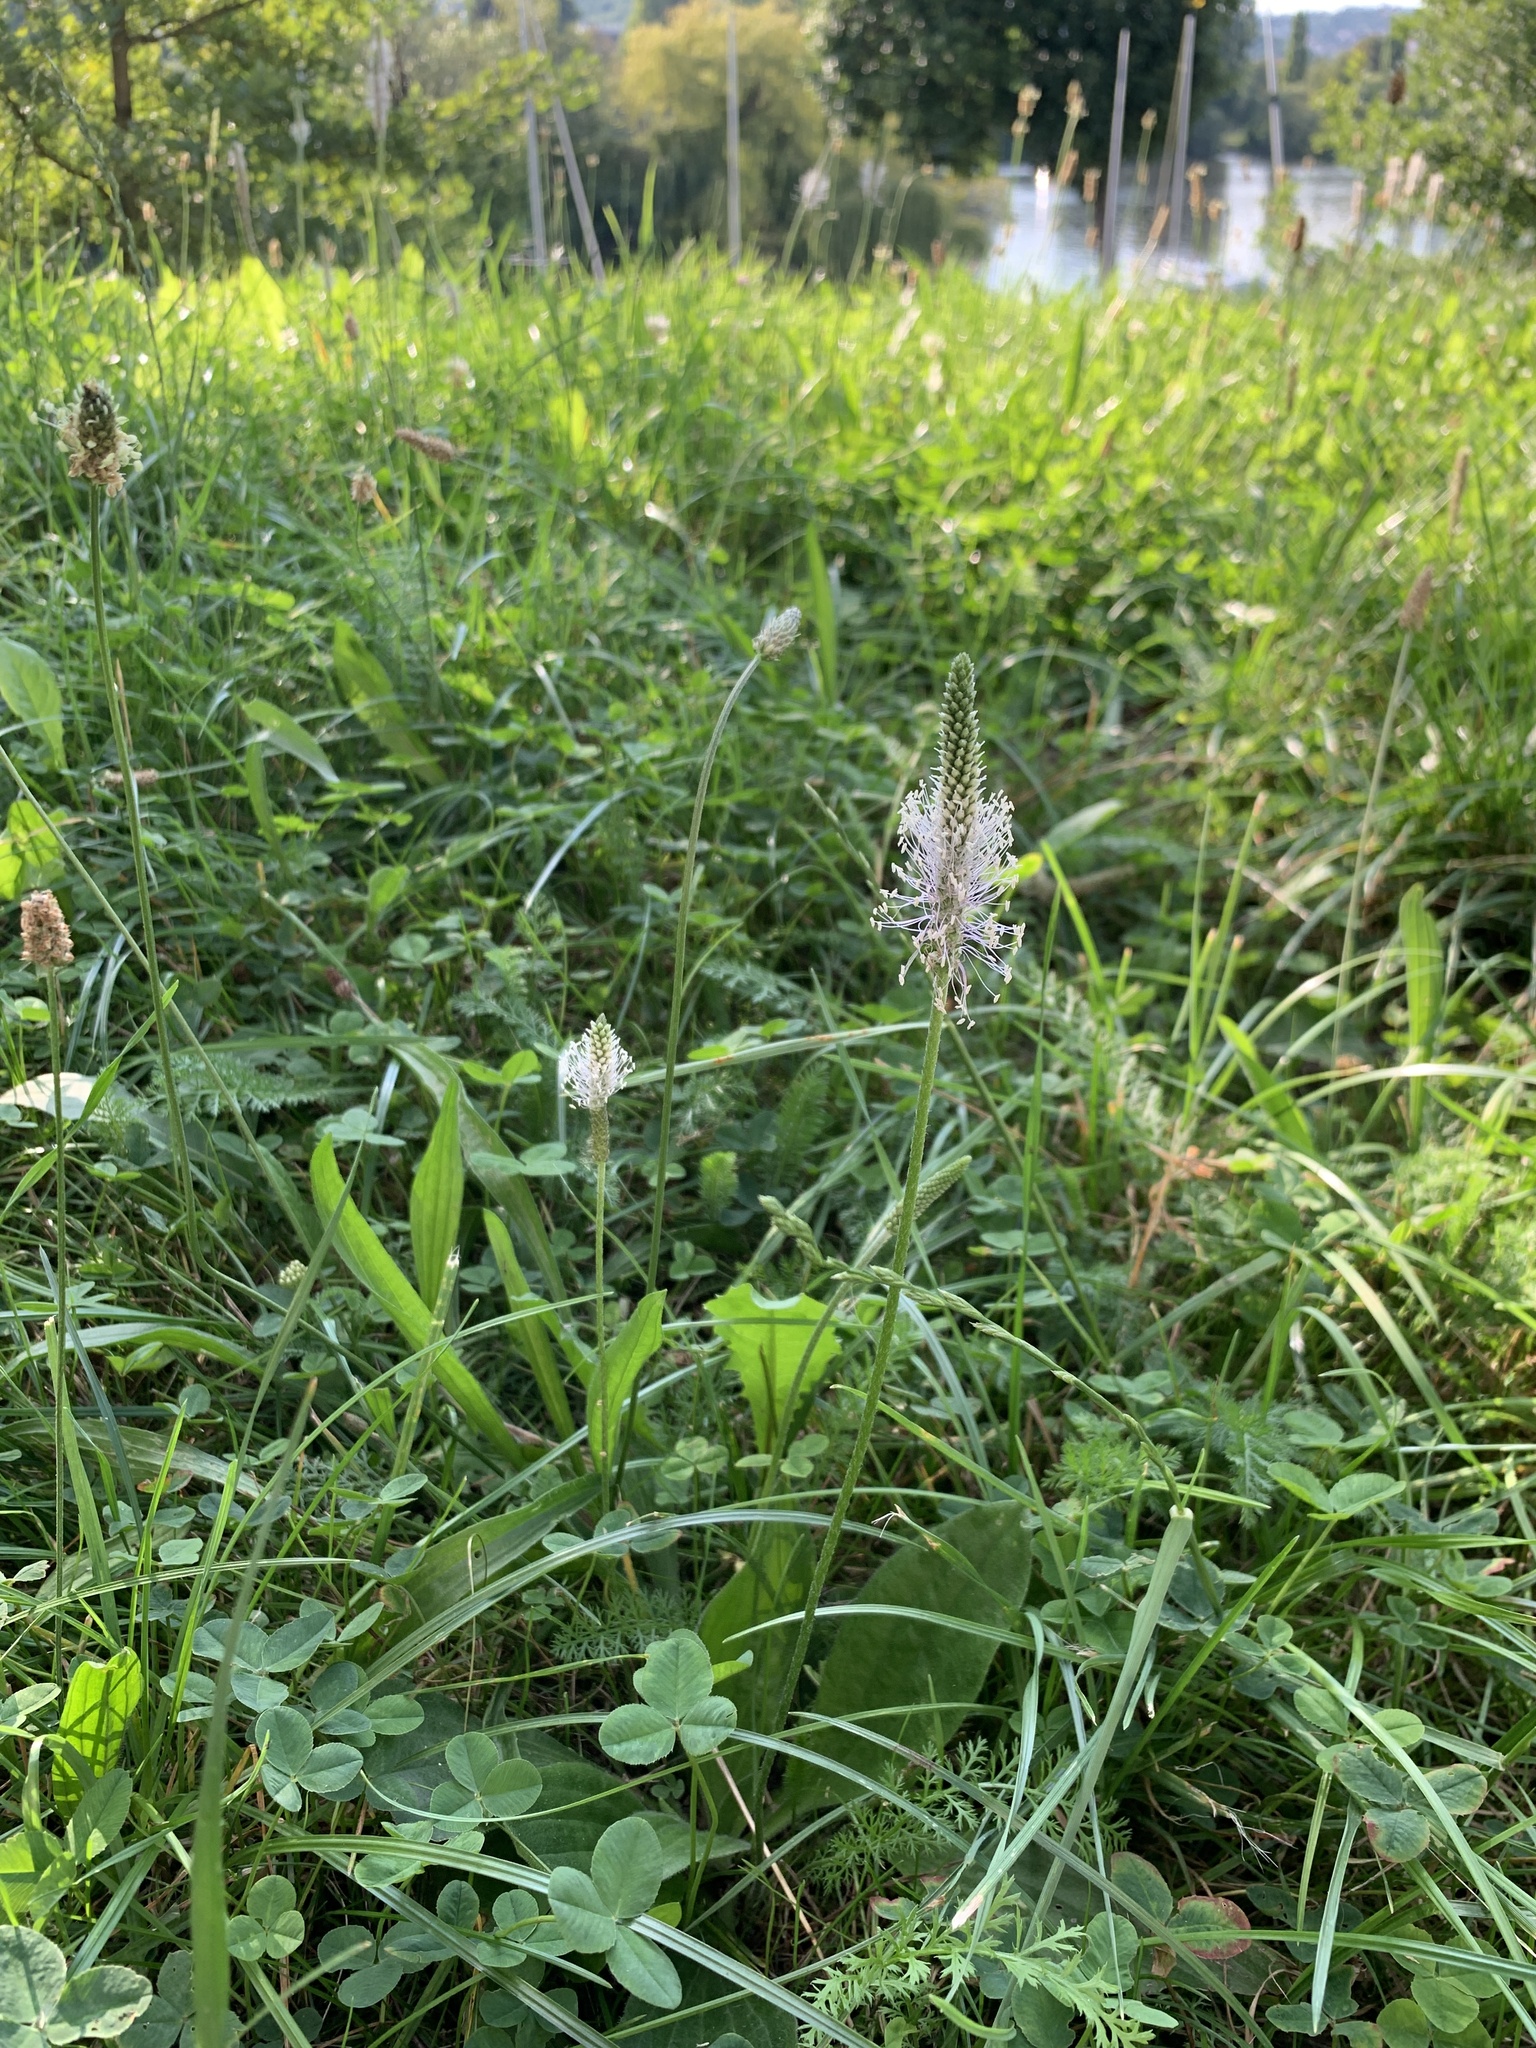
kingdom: Plantae
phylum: Tracheophyta
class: Magnoliopsida
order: Lamiales
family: Plantaginaceae
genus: Plantago
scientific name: Plantago media
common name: Hoary plantain
